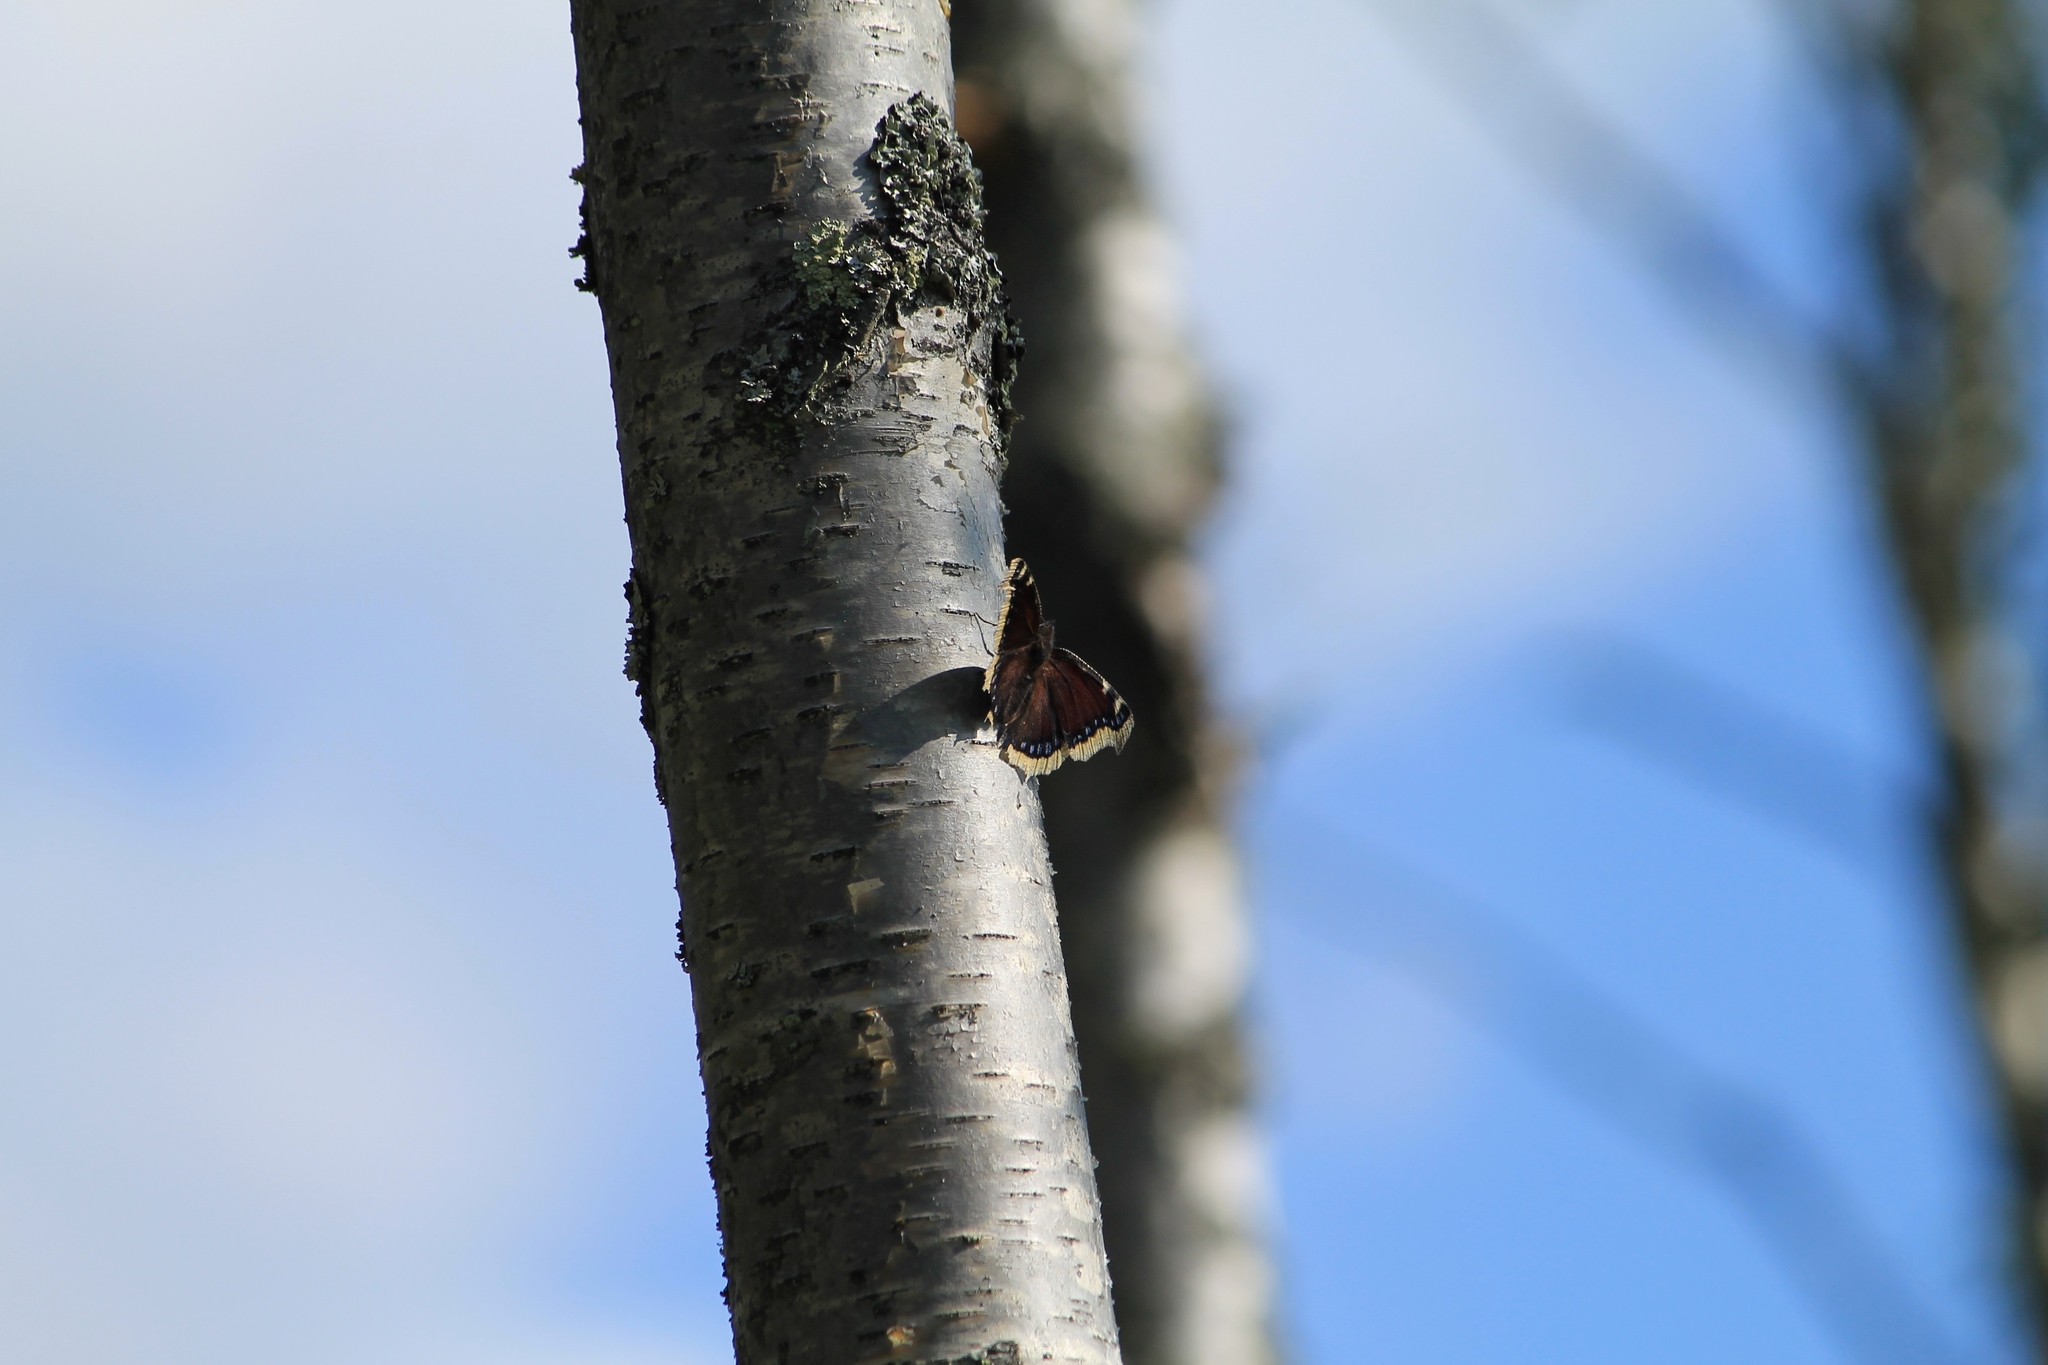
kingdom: Animalia
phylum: Arthropoda
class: Insecta
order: Lepidoptera
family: Nymphalidae
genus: Nymphalis
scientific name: Nymphalis antiopa
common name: Camberwell beauty
